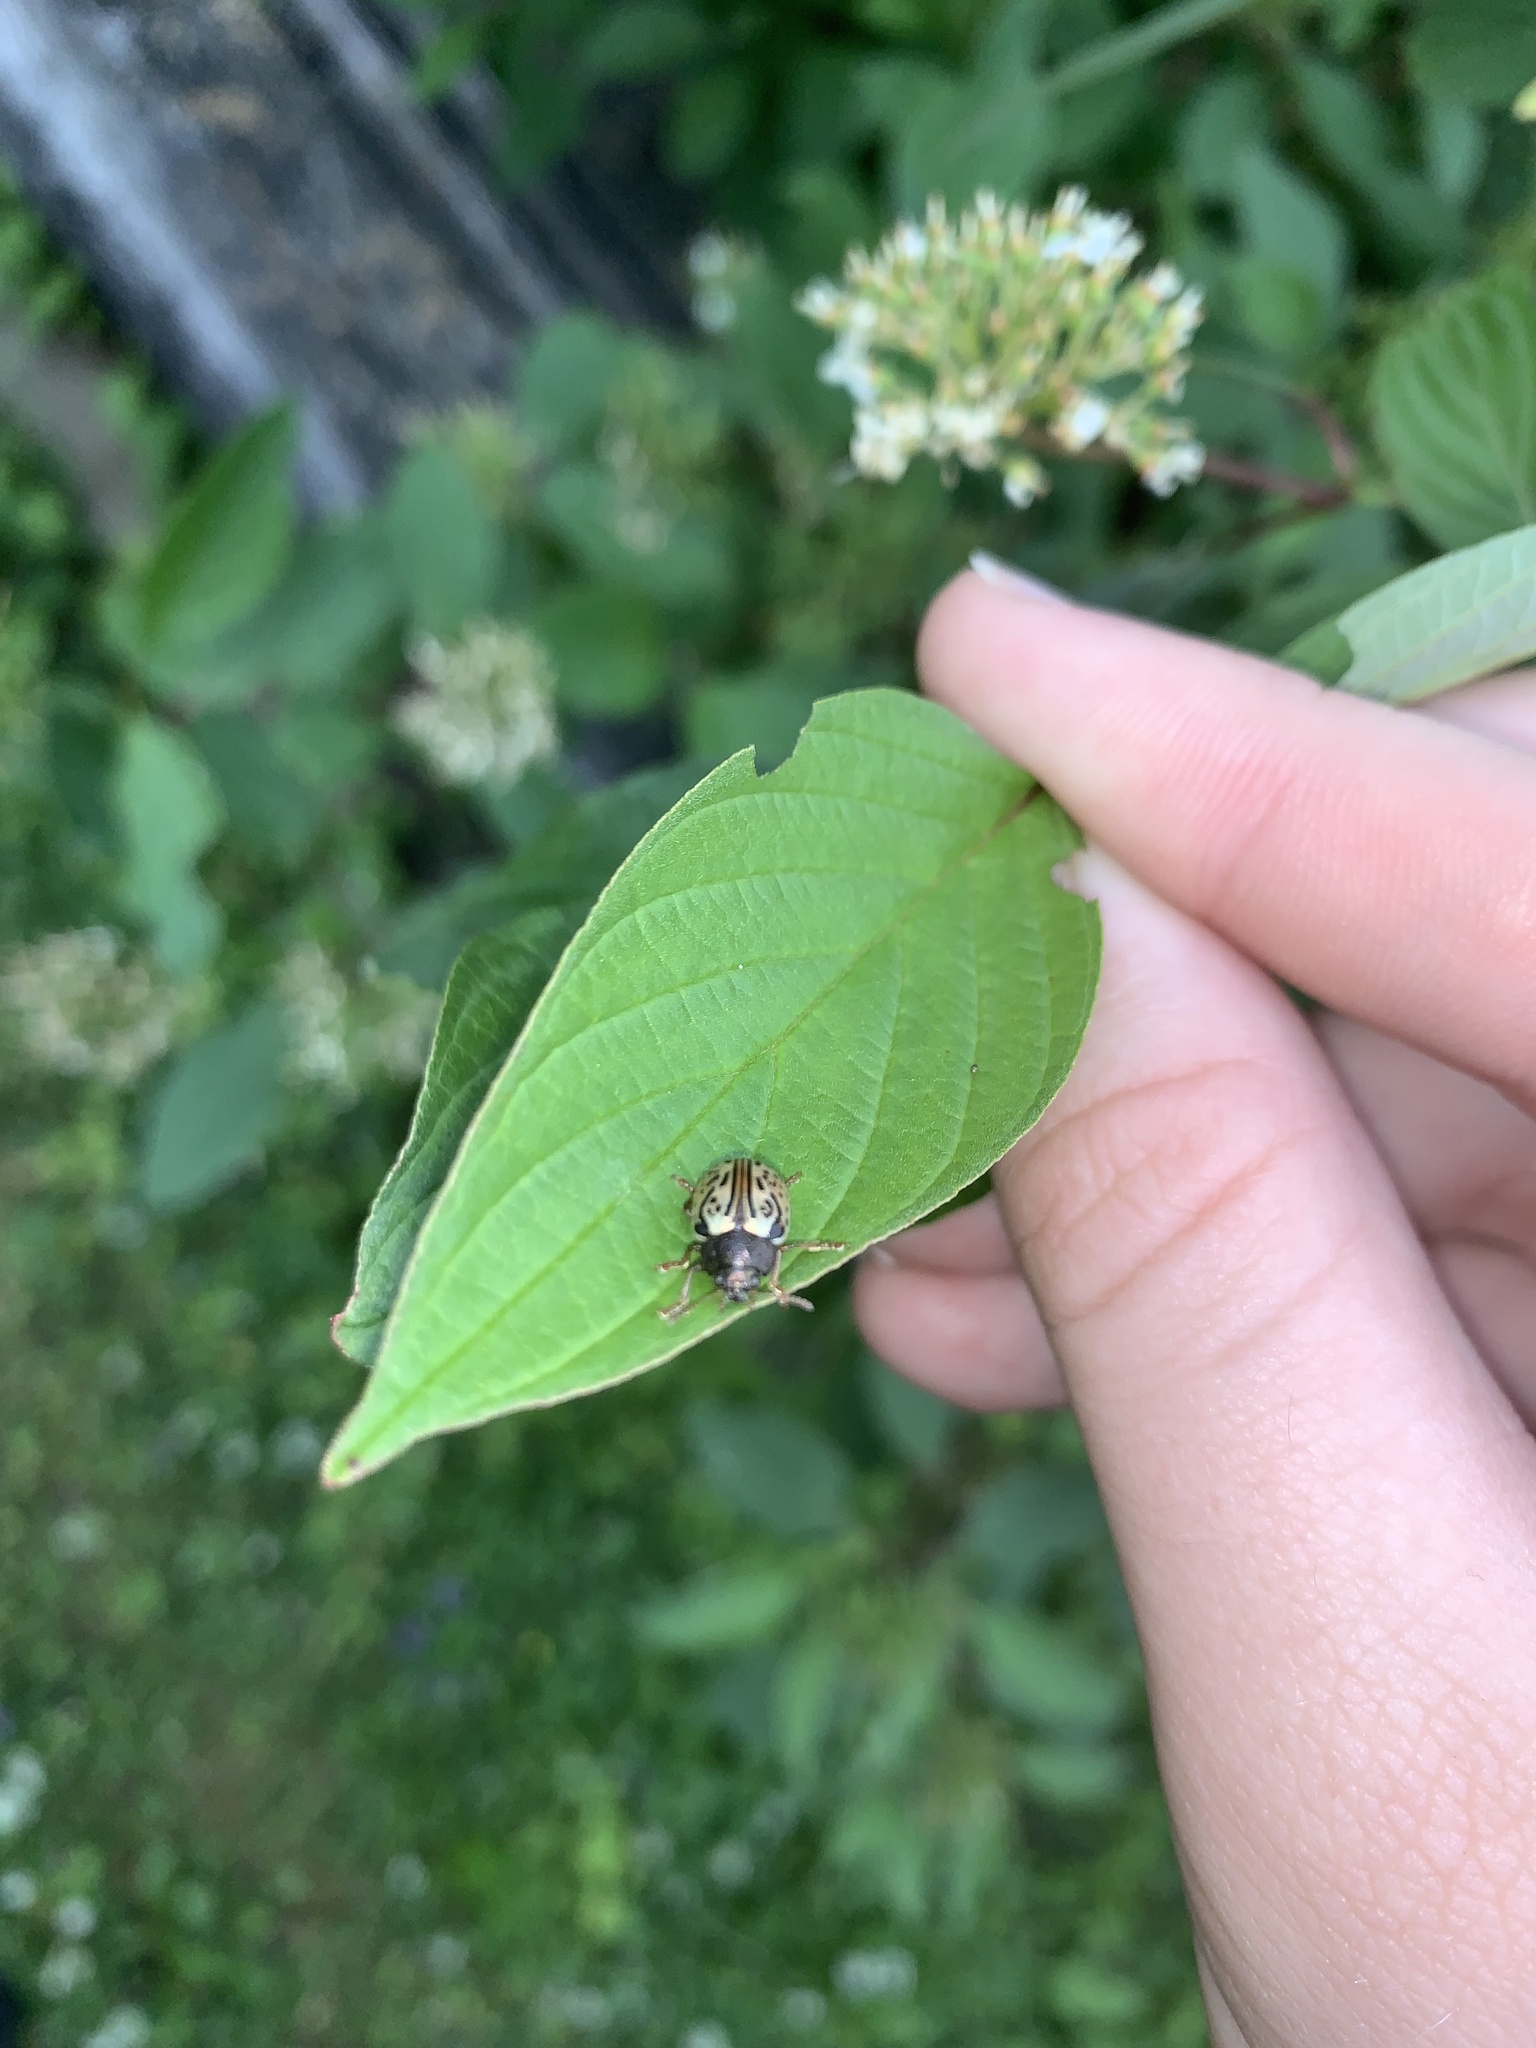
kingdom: Animalia
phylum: Arthropoda
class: Insecta
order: Coleoptera
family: Chrysomelidae
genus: Calligrapha
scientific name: Calligrapha philadelphica
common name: Dogwood leaf beetle
